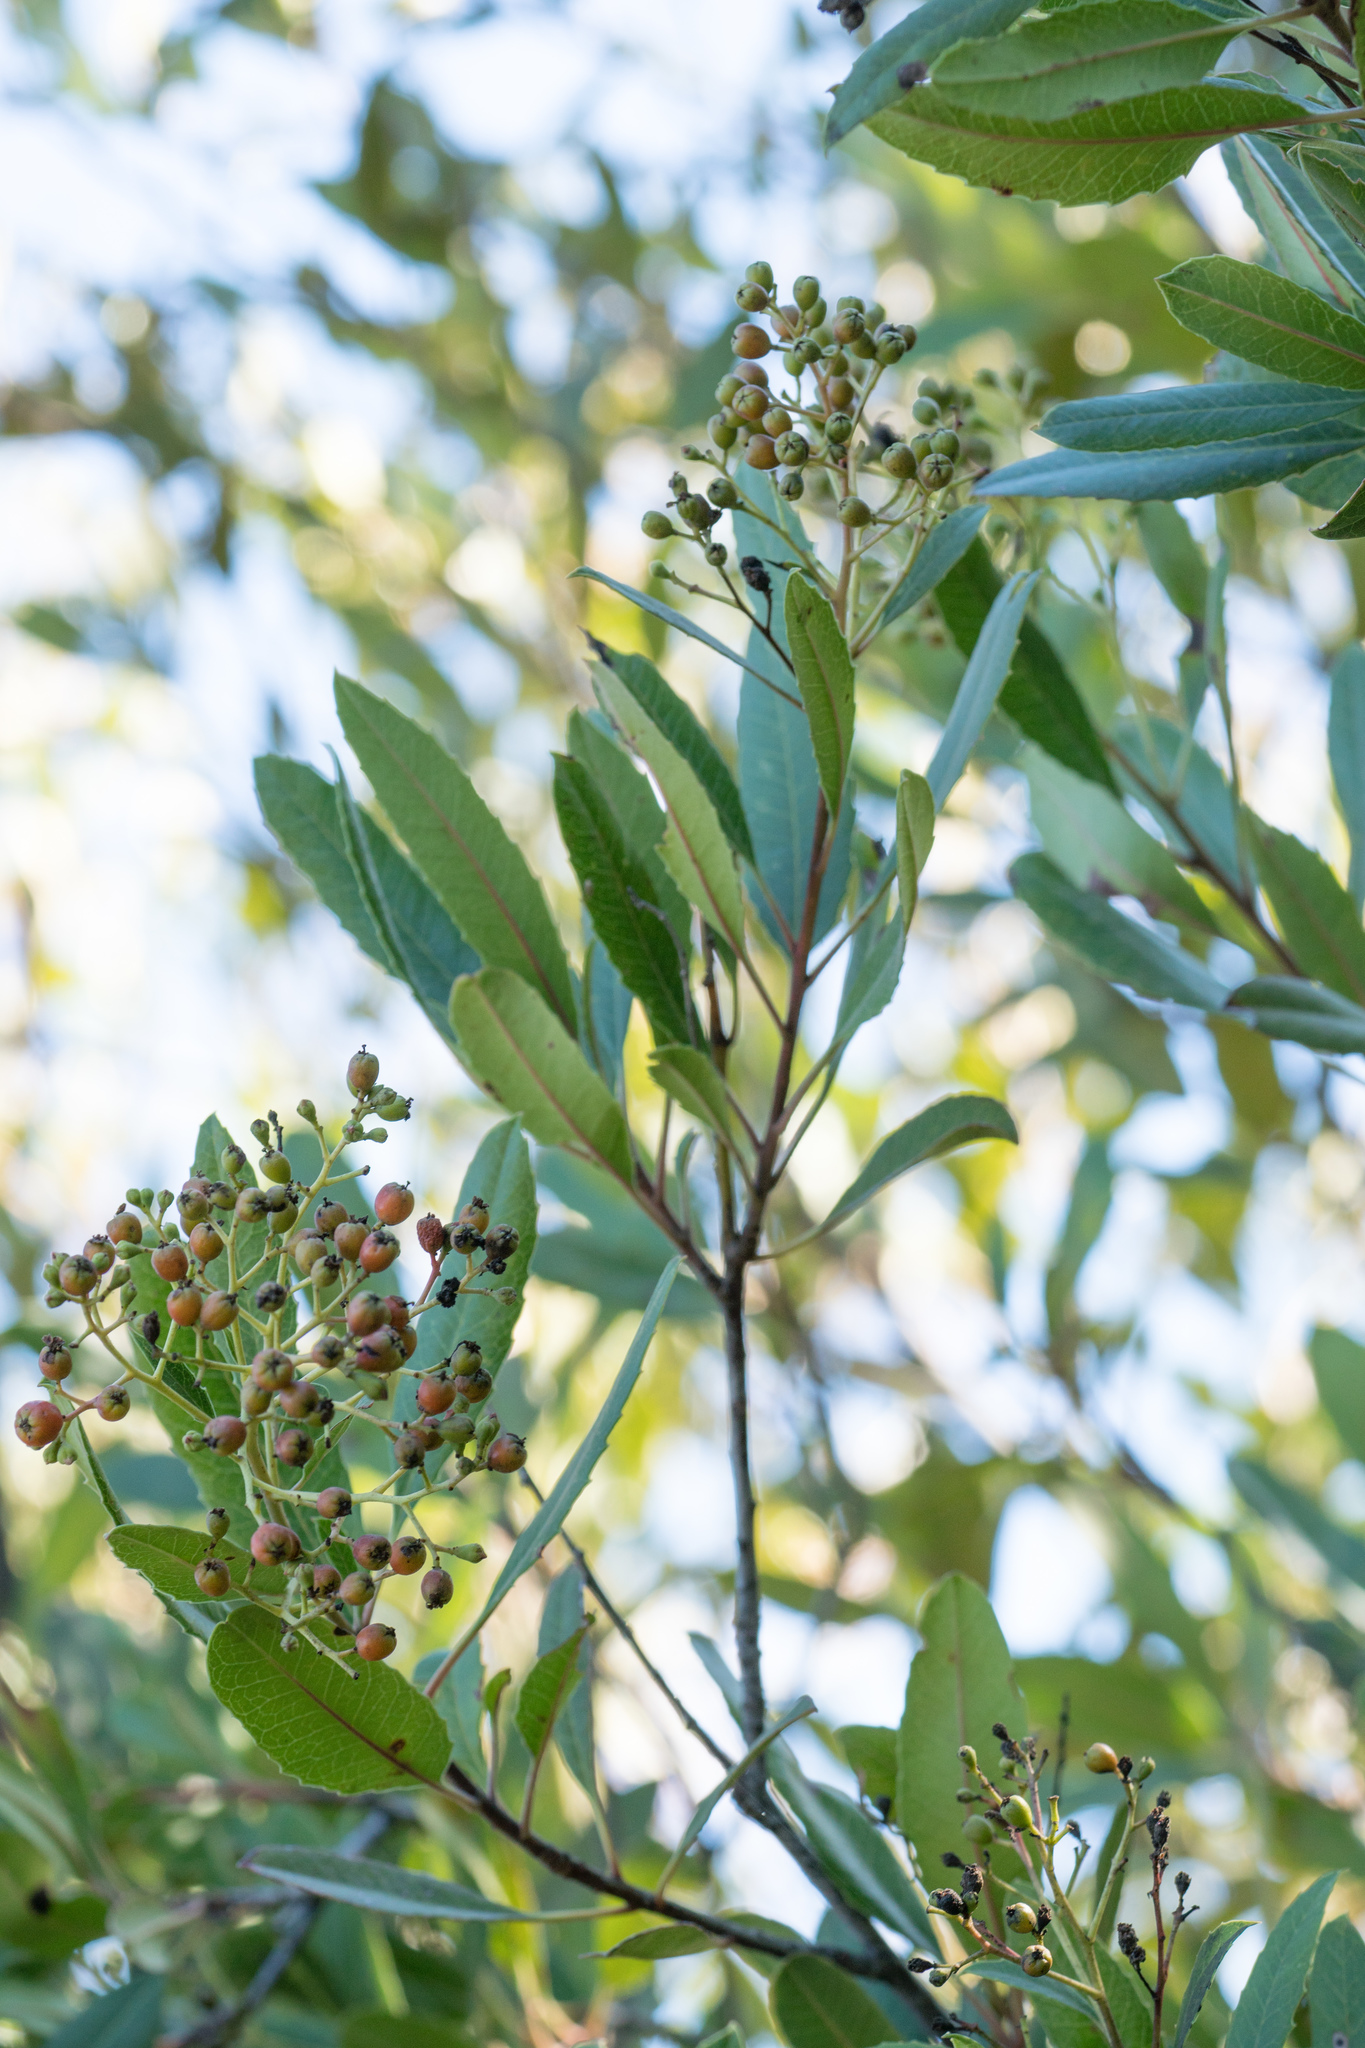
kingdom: Plantae
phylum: Tracheophyta
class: Magnoliopsida
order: Rosales
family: Rosaceae
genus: Heteromeles
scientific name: Heteromeles arbutifolia
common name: California-holly
